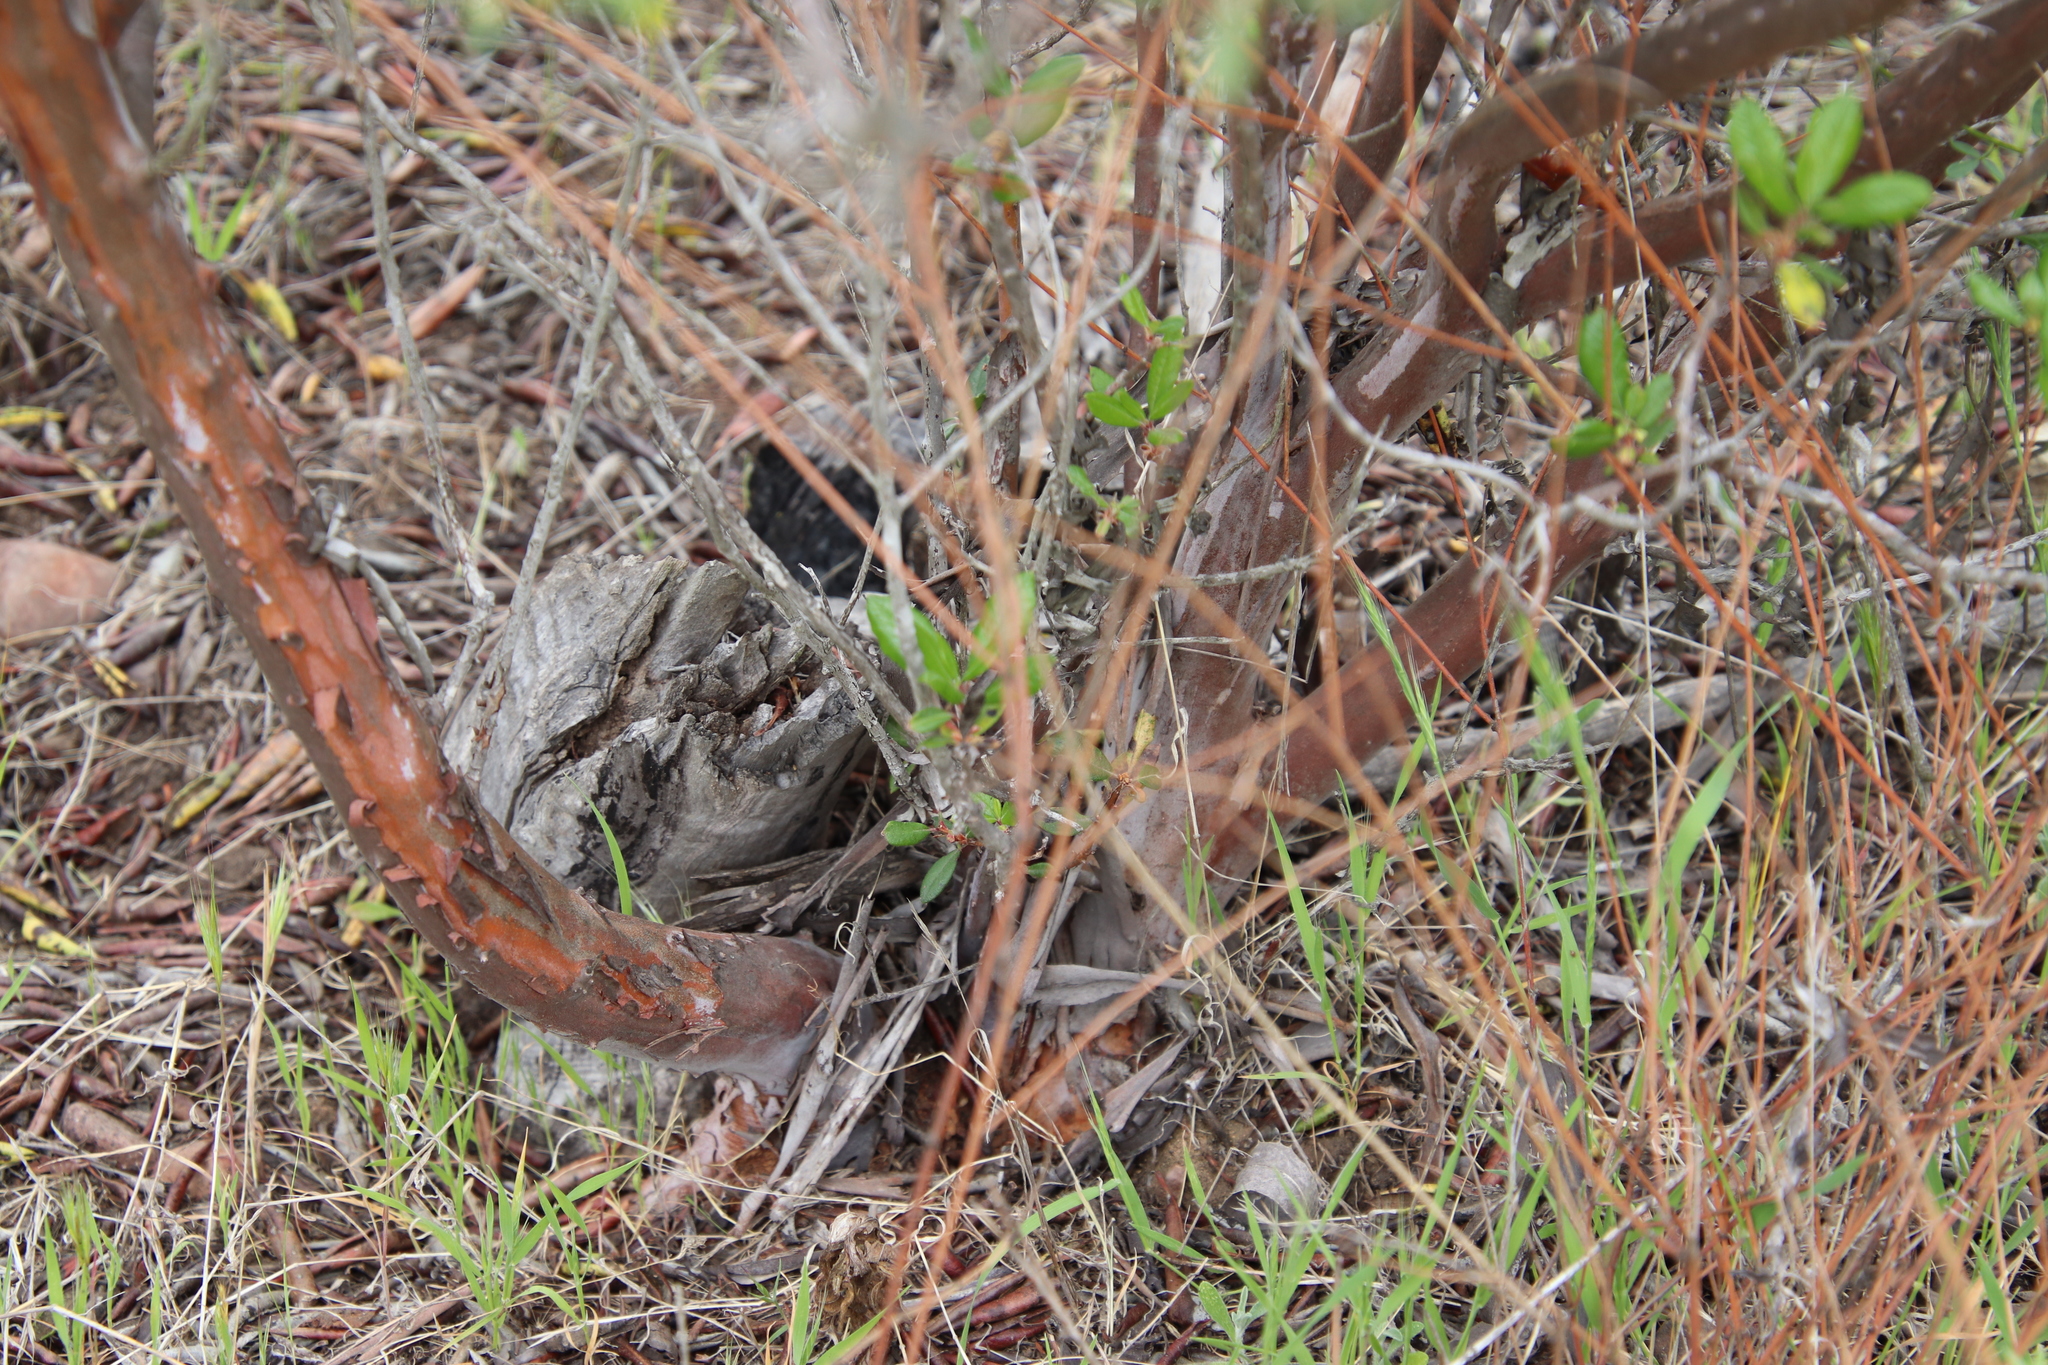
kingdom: Plantae
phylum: Tracheophyta
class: Magnoliopsida
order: Ericales
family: Ericaceae
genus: Arctostaphylos
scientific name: Arctostaphylos bicolor
